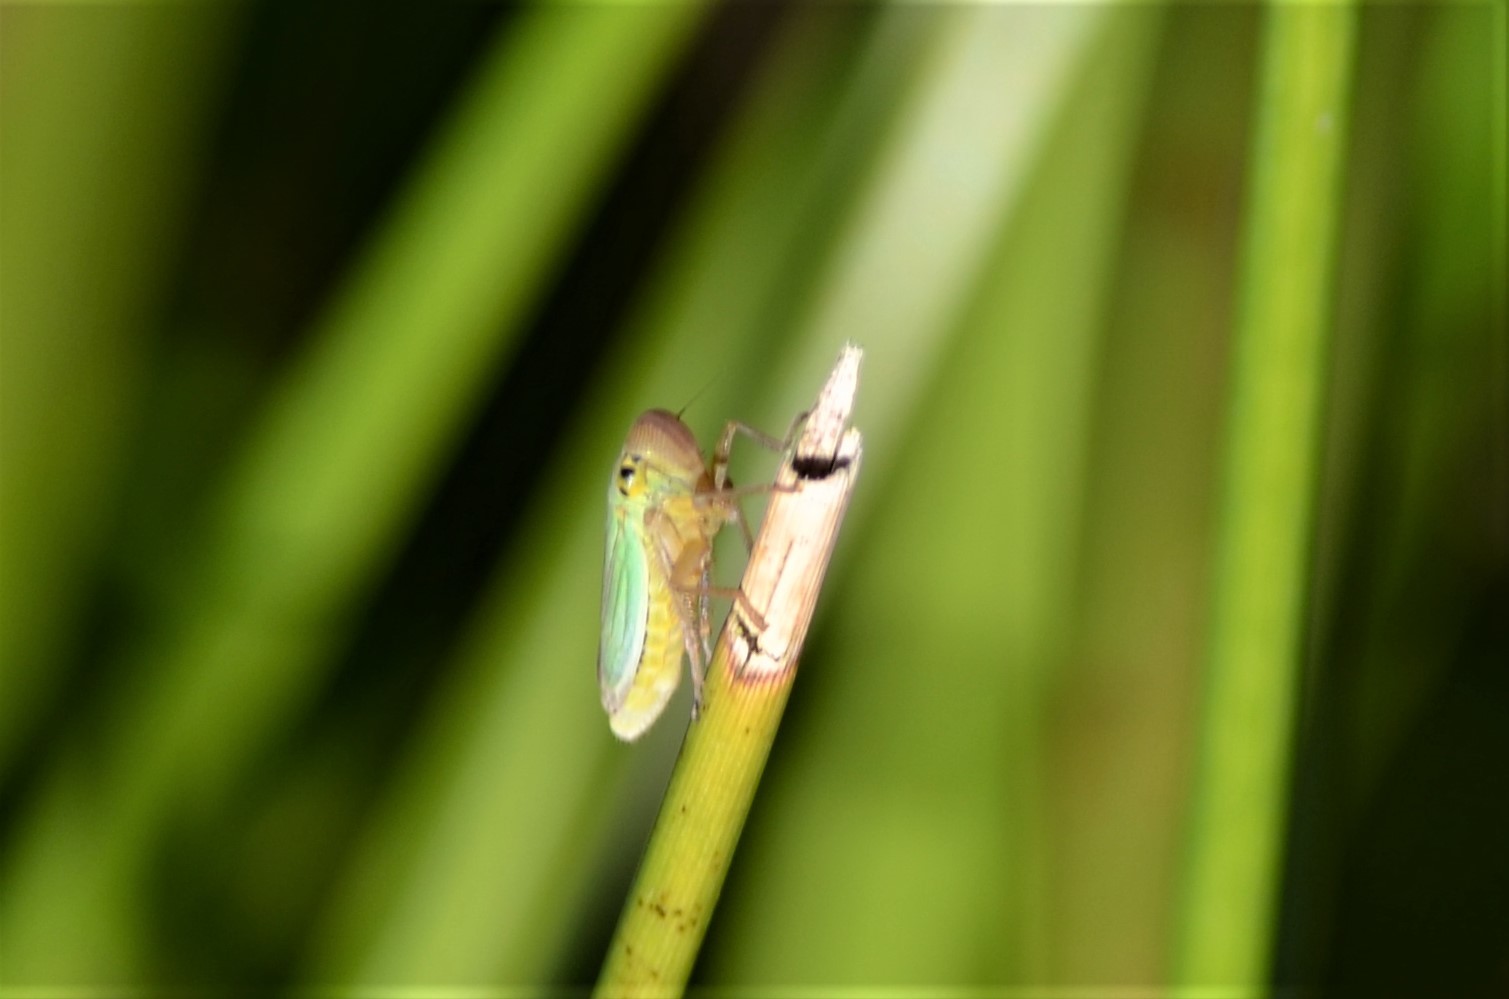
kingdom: Animalia
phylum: Arthropoda
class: Insecta
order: Hemiptera
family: Cicadellidae
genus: Cicadella
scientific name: Cicadella viridis
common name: Leafhopper
